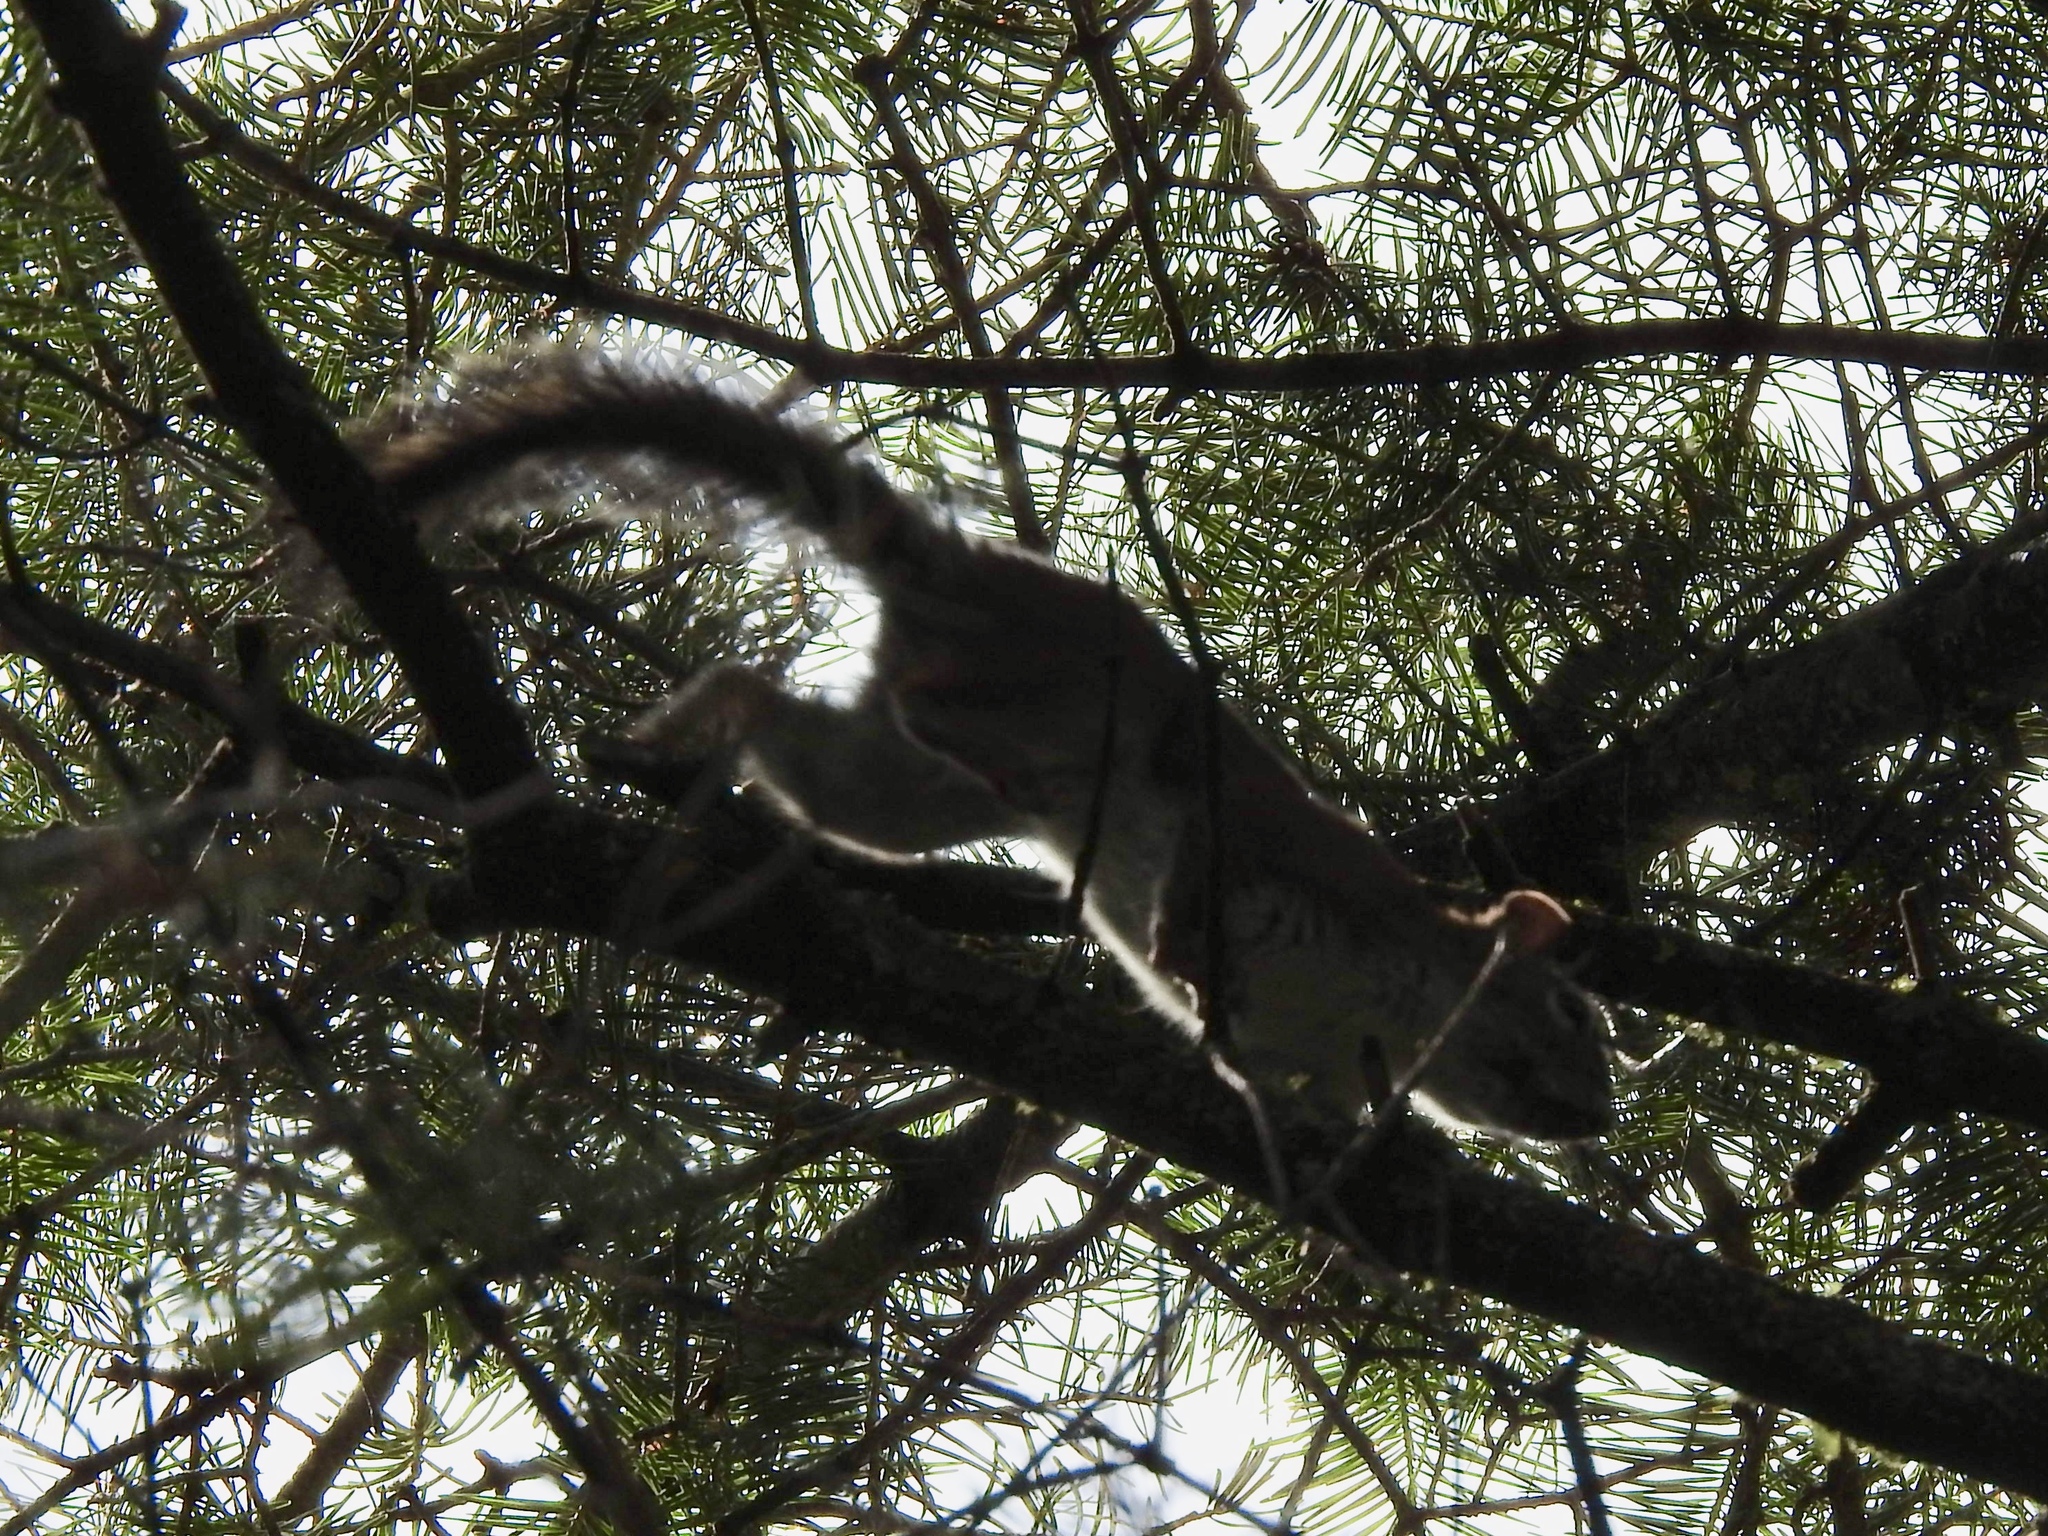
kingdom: Animalia
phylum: Chordata
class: Mammalia
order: Rodentia
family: Sciuridae
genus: Tamiasciurus
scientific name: Tamiasciurus hudsonicus
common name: Red squirrel
